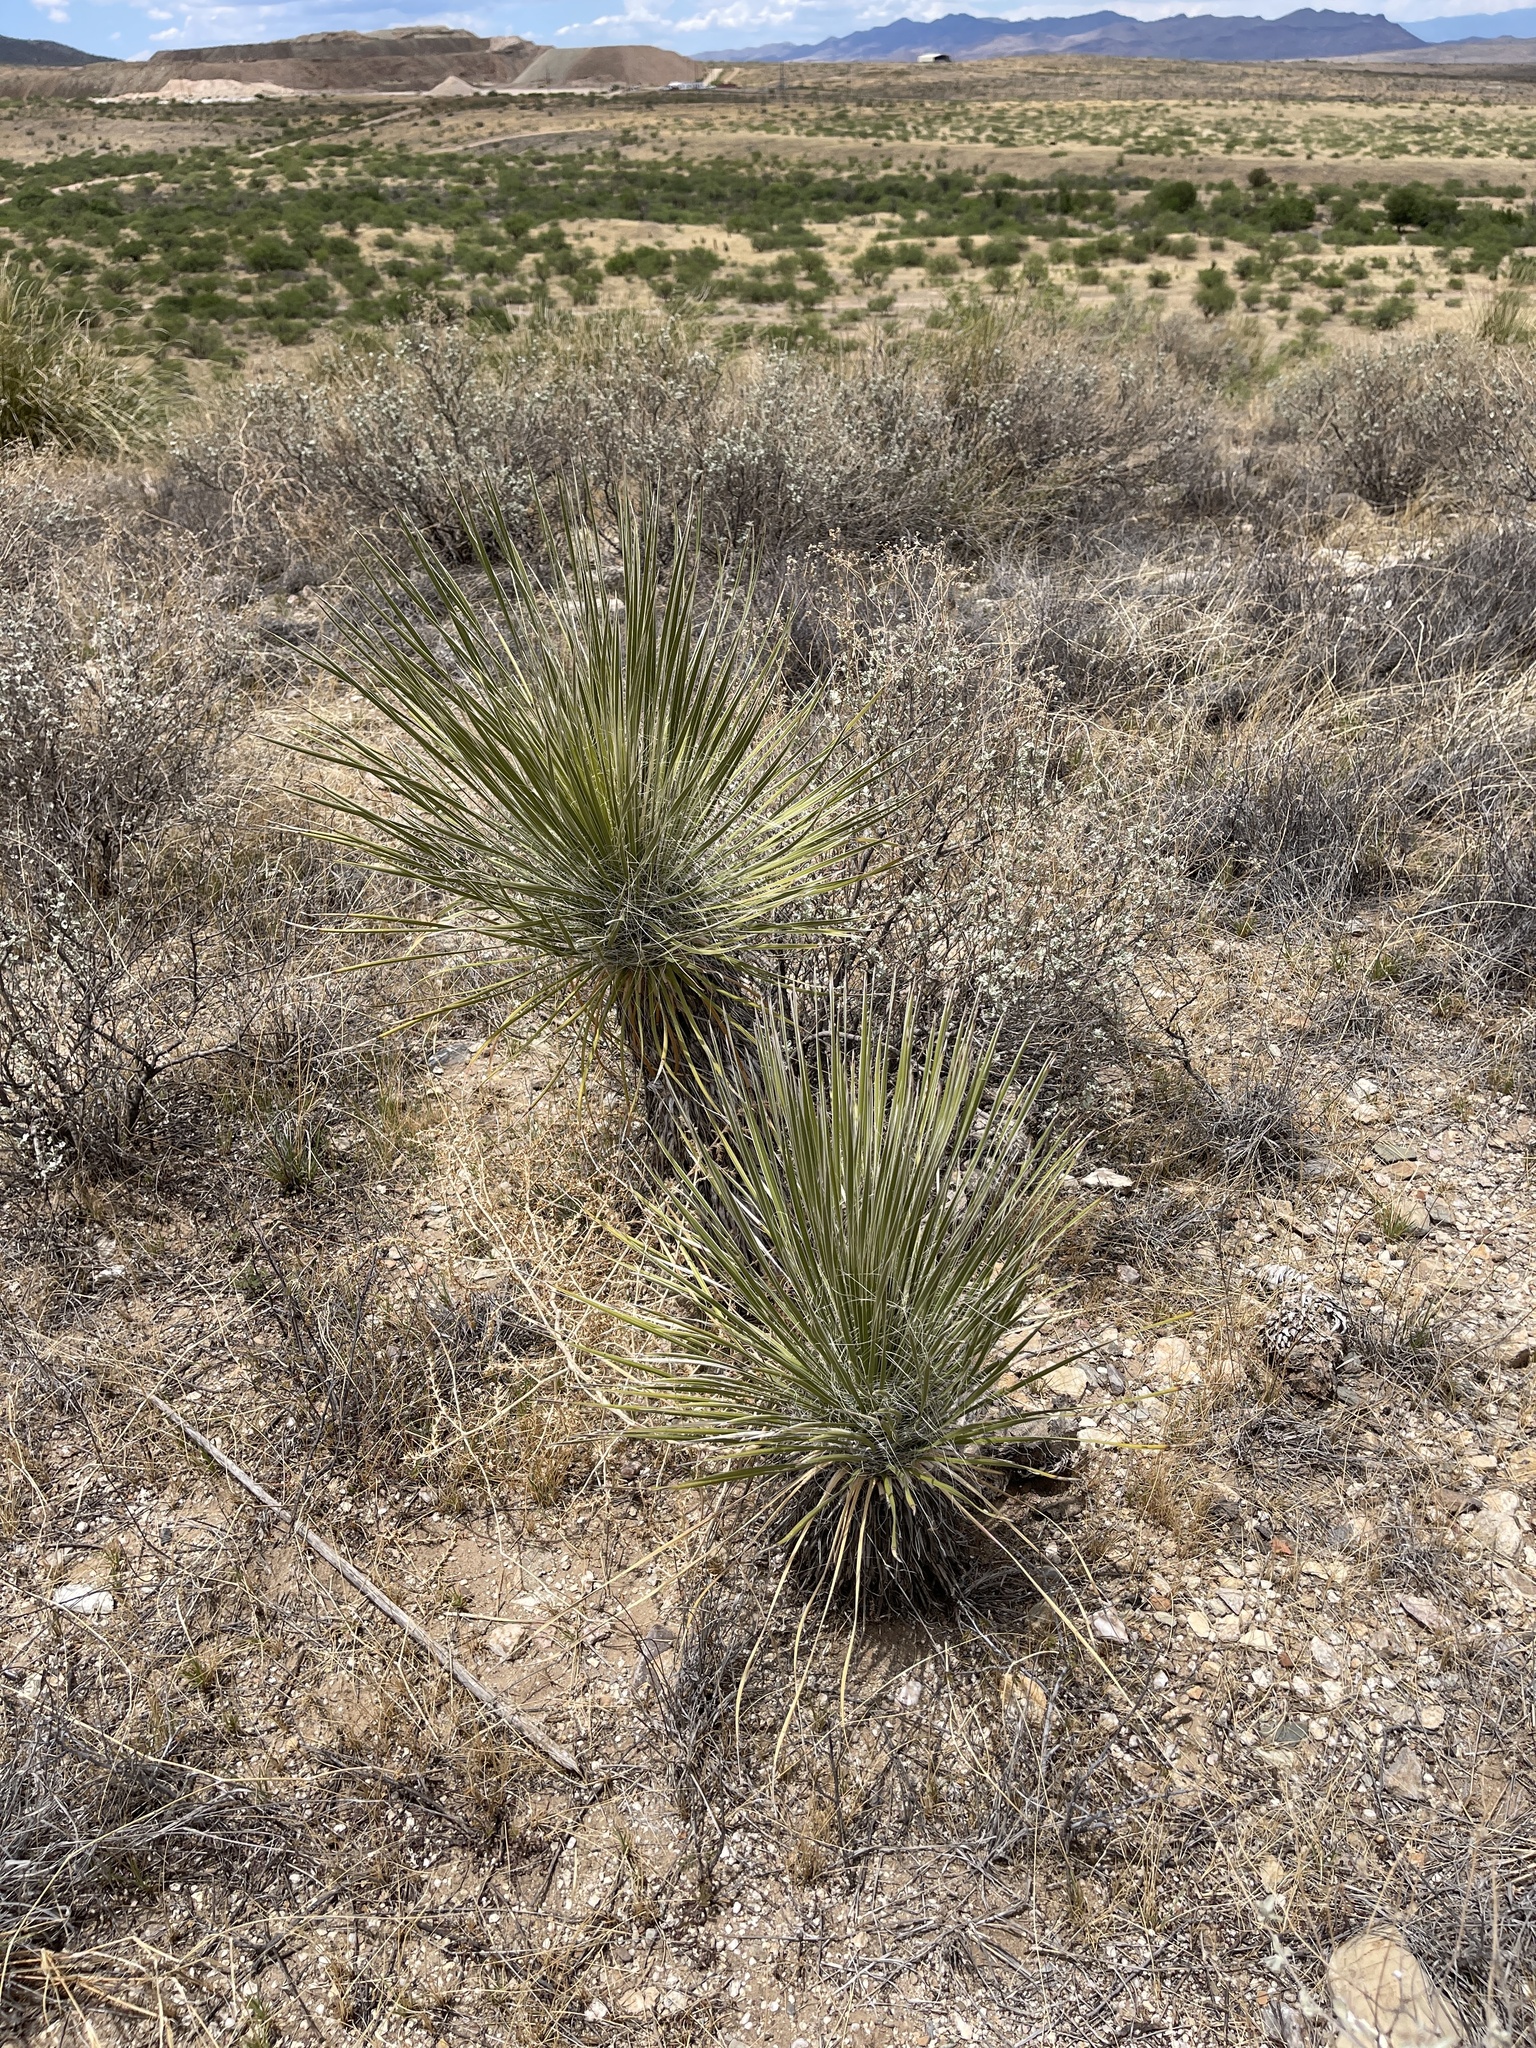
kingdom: Plantae
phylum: Tracheophyta
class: Liliopsida
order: Asparagales
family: Asparagaceae
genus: Yucca
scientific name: Yucca elata
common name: Palmella
